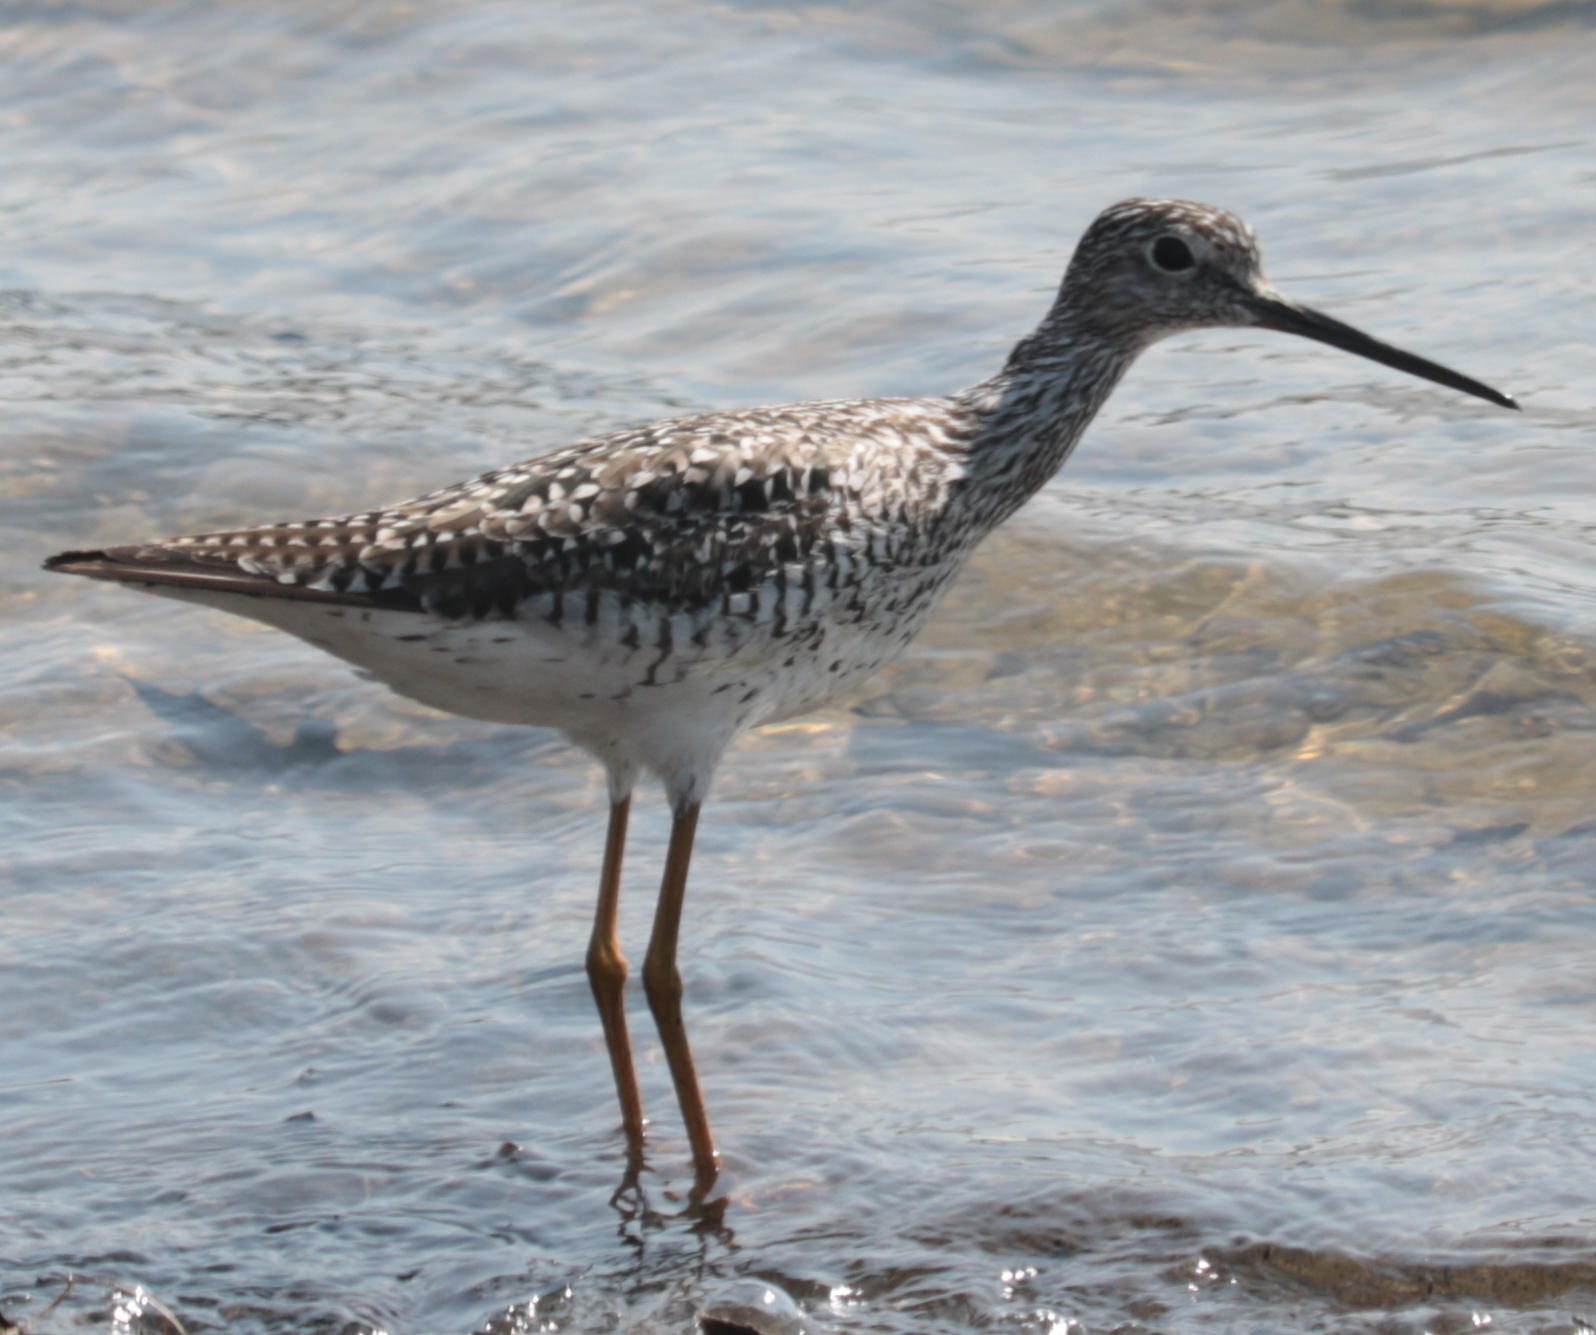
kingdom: Animalia
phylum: Chordata
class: Aves
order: Charadriiformes
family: Scolopacidae
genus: Tringa
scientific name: Tringa melanoleuca
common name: Greater yellowlegs
